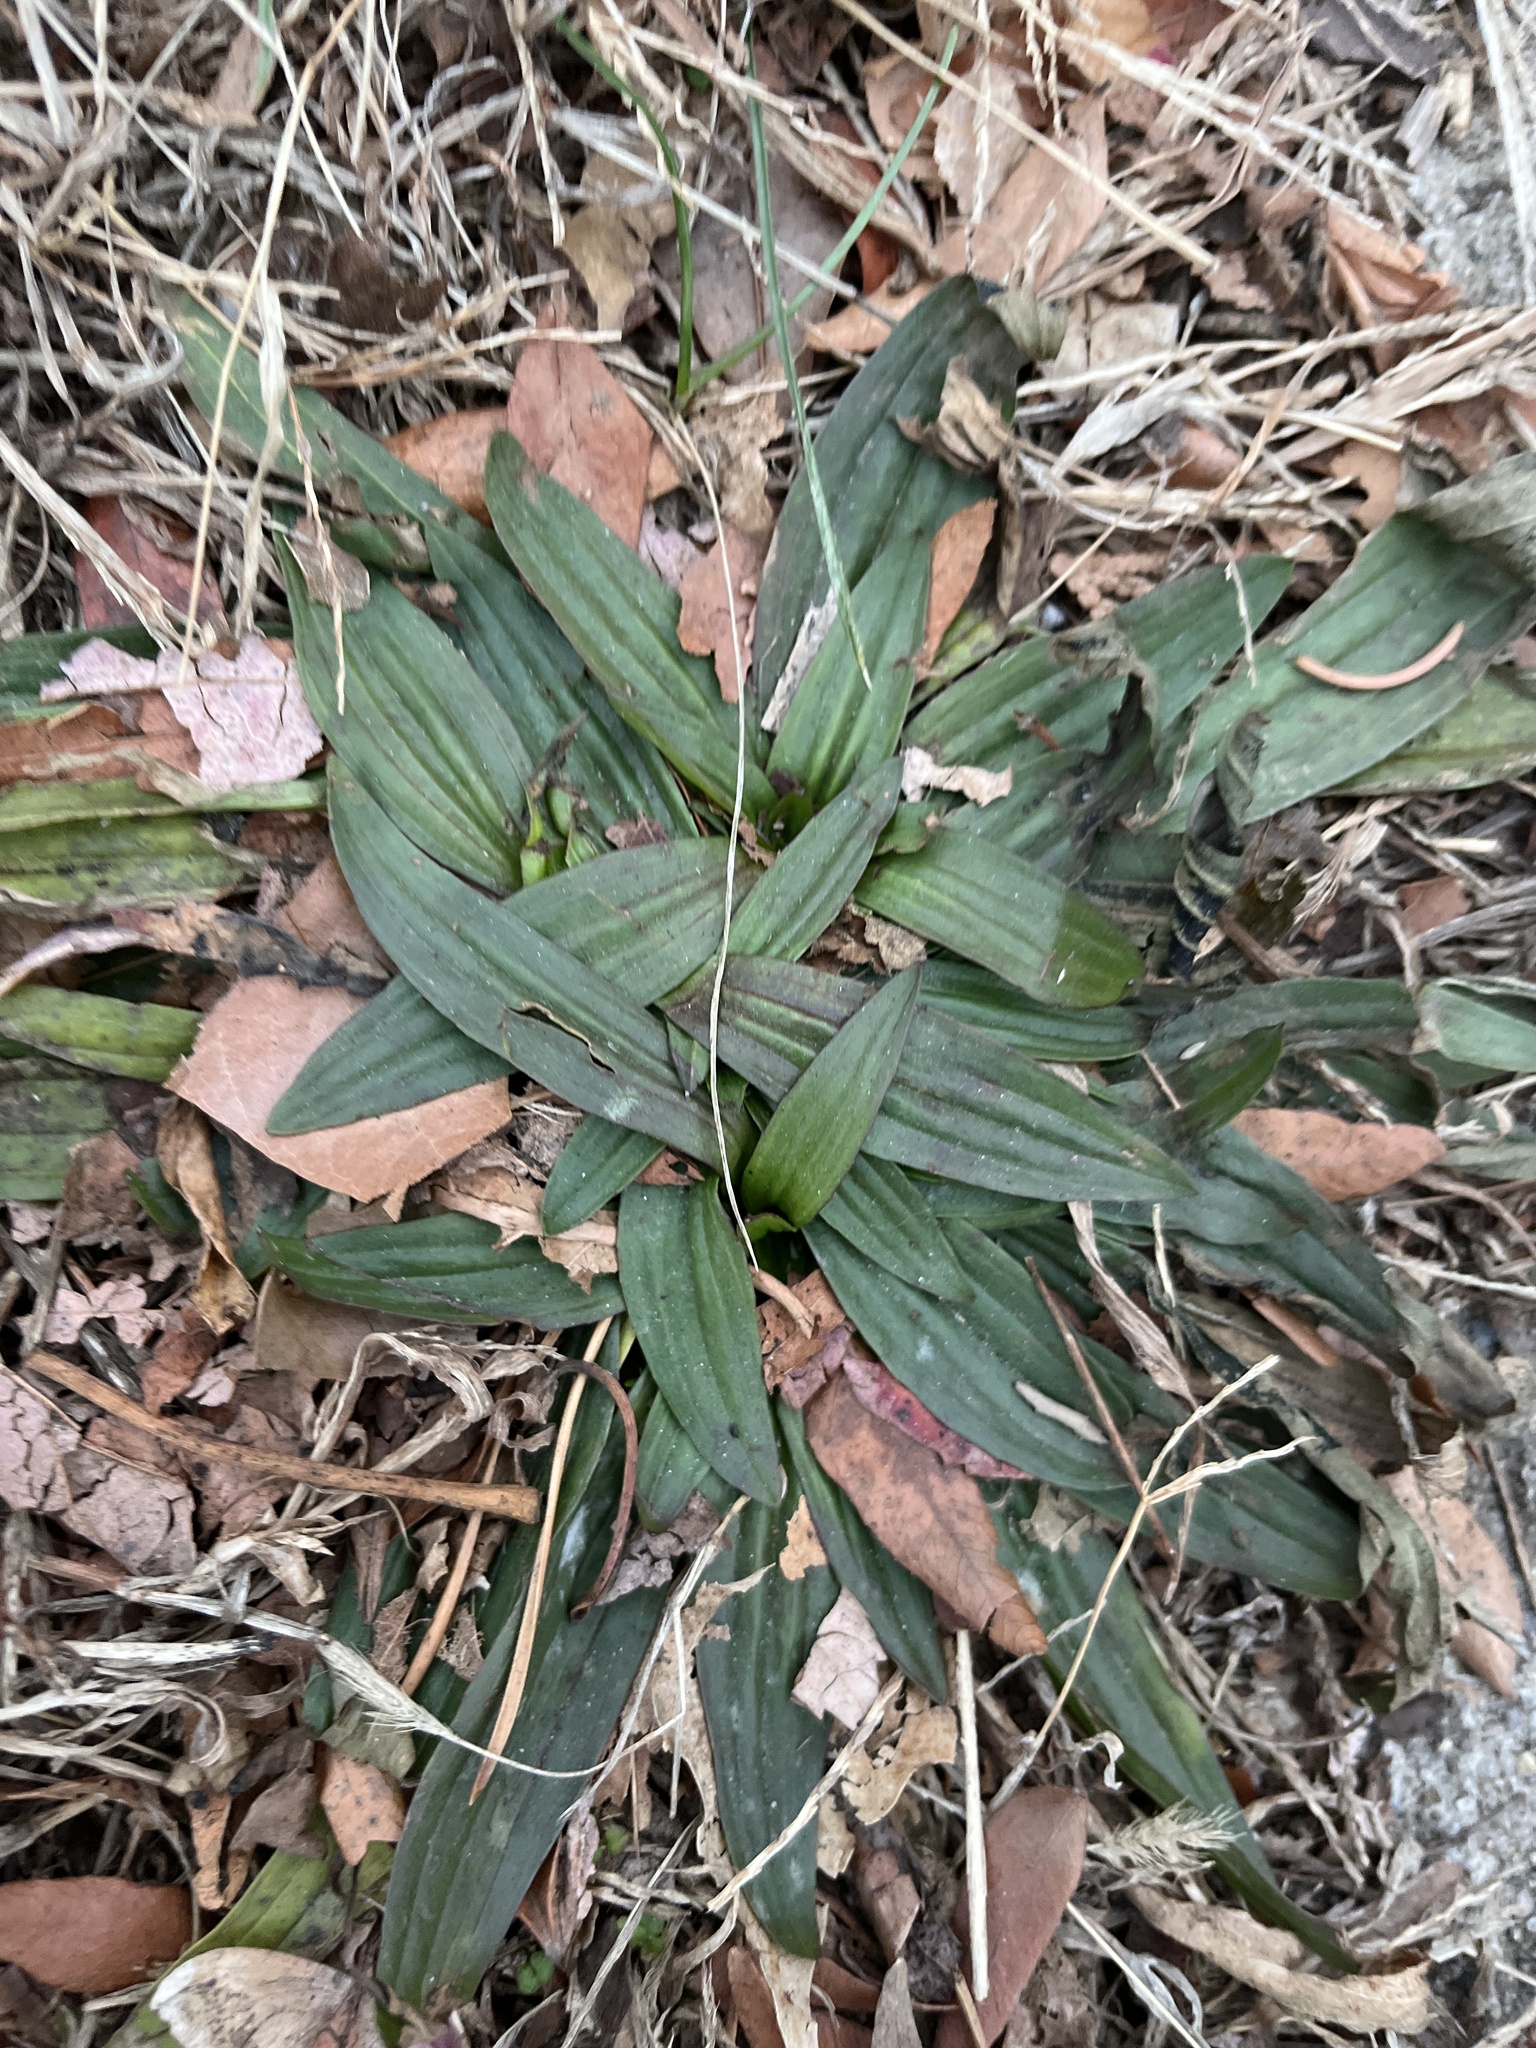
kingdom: Plantae
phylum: Tracheophyta
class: Magnoliopsida
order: Lamiales
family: Plantaginaceae
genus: Plantago
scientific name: Plantago lanceolata
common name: Ribwort plantain
